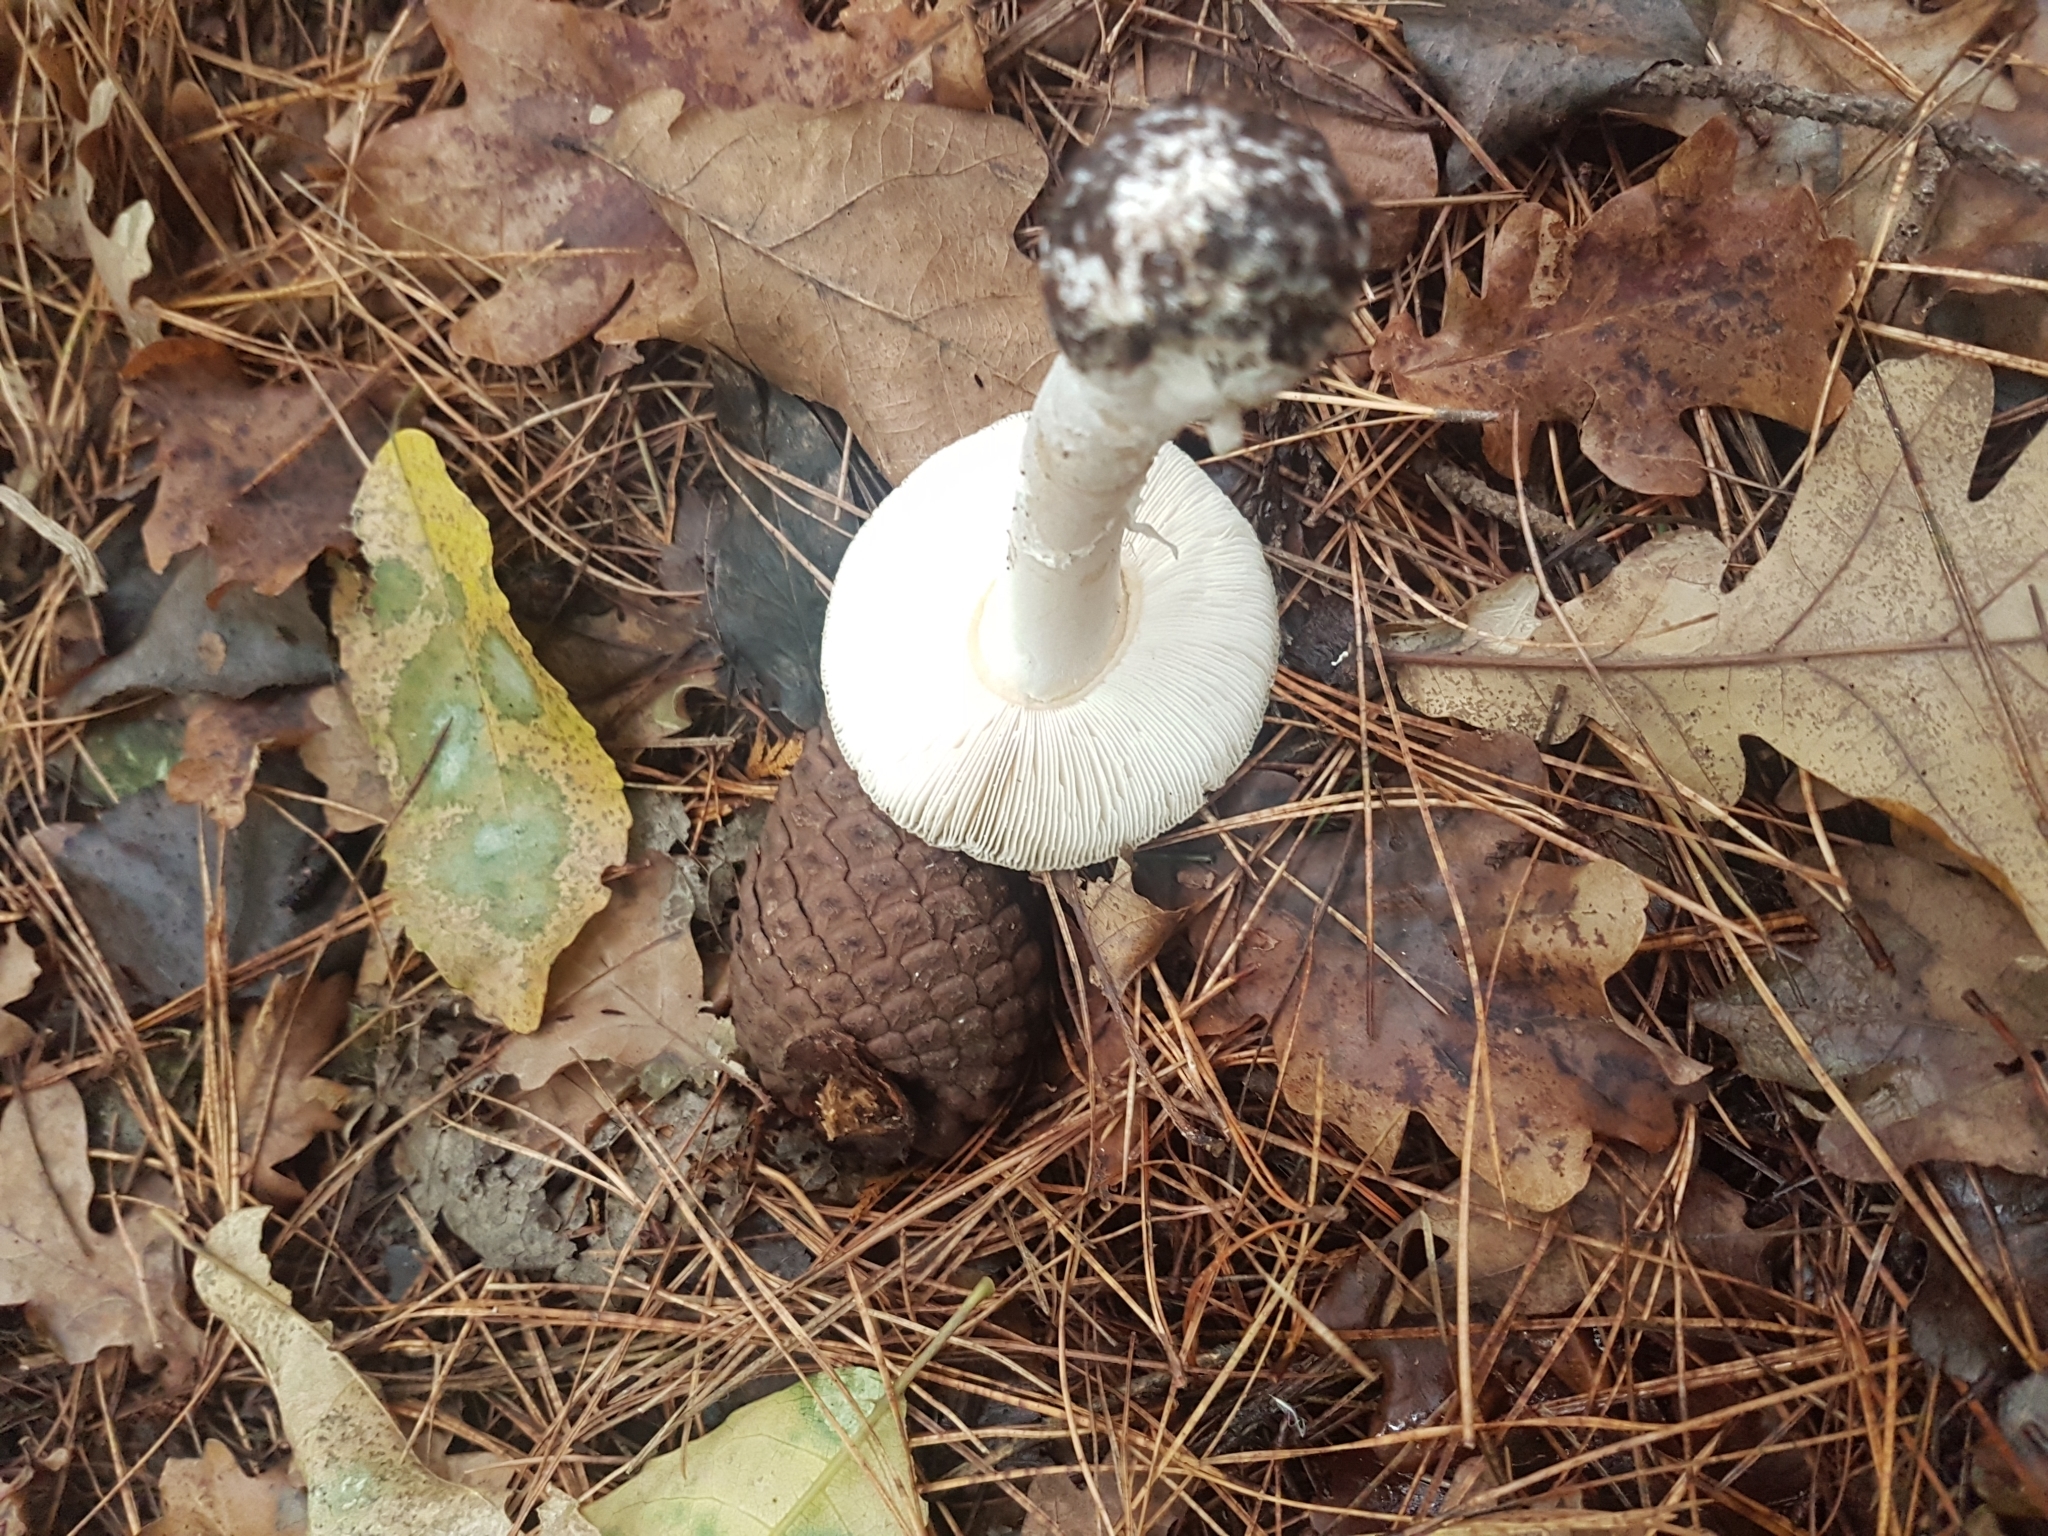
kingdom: Fungi
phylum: Basidiomycota
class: Agaricomycetes
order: Agaricales
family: Amanitaceae
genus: Amanita
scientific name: Amanita gemmata
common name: Jewelled amanita
